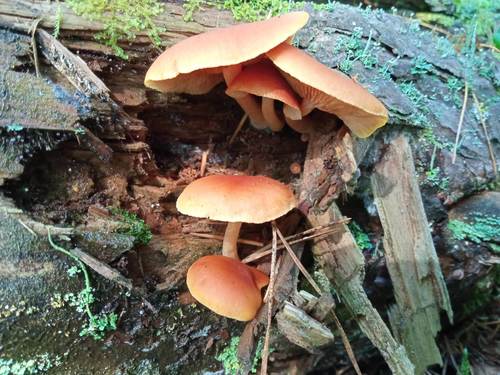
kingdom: Fungi
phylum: Basidiomycota
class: Agaricomycetes
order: Agaricales
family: Hymenogastraceae
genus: Gymnopilus
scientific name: Gymnopilus penetrans
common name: Common rustgill
